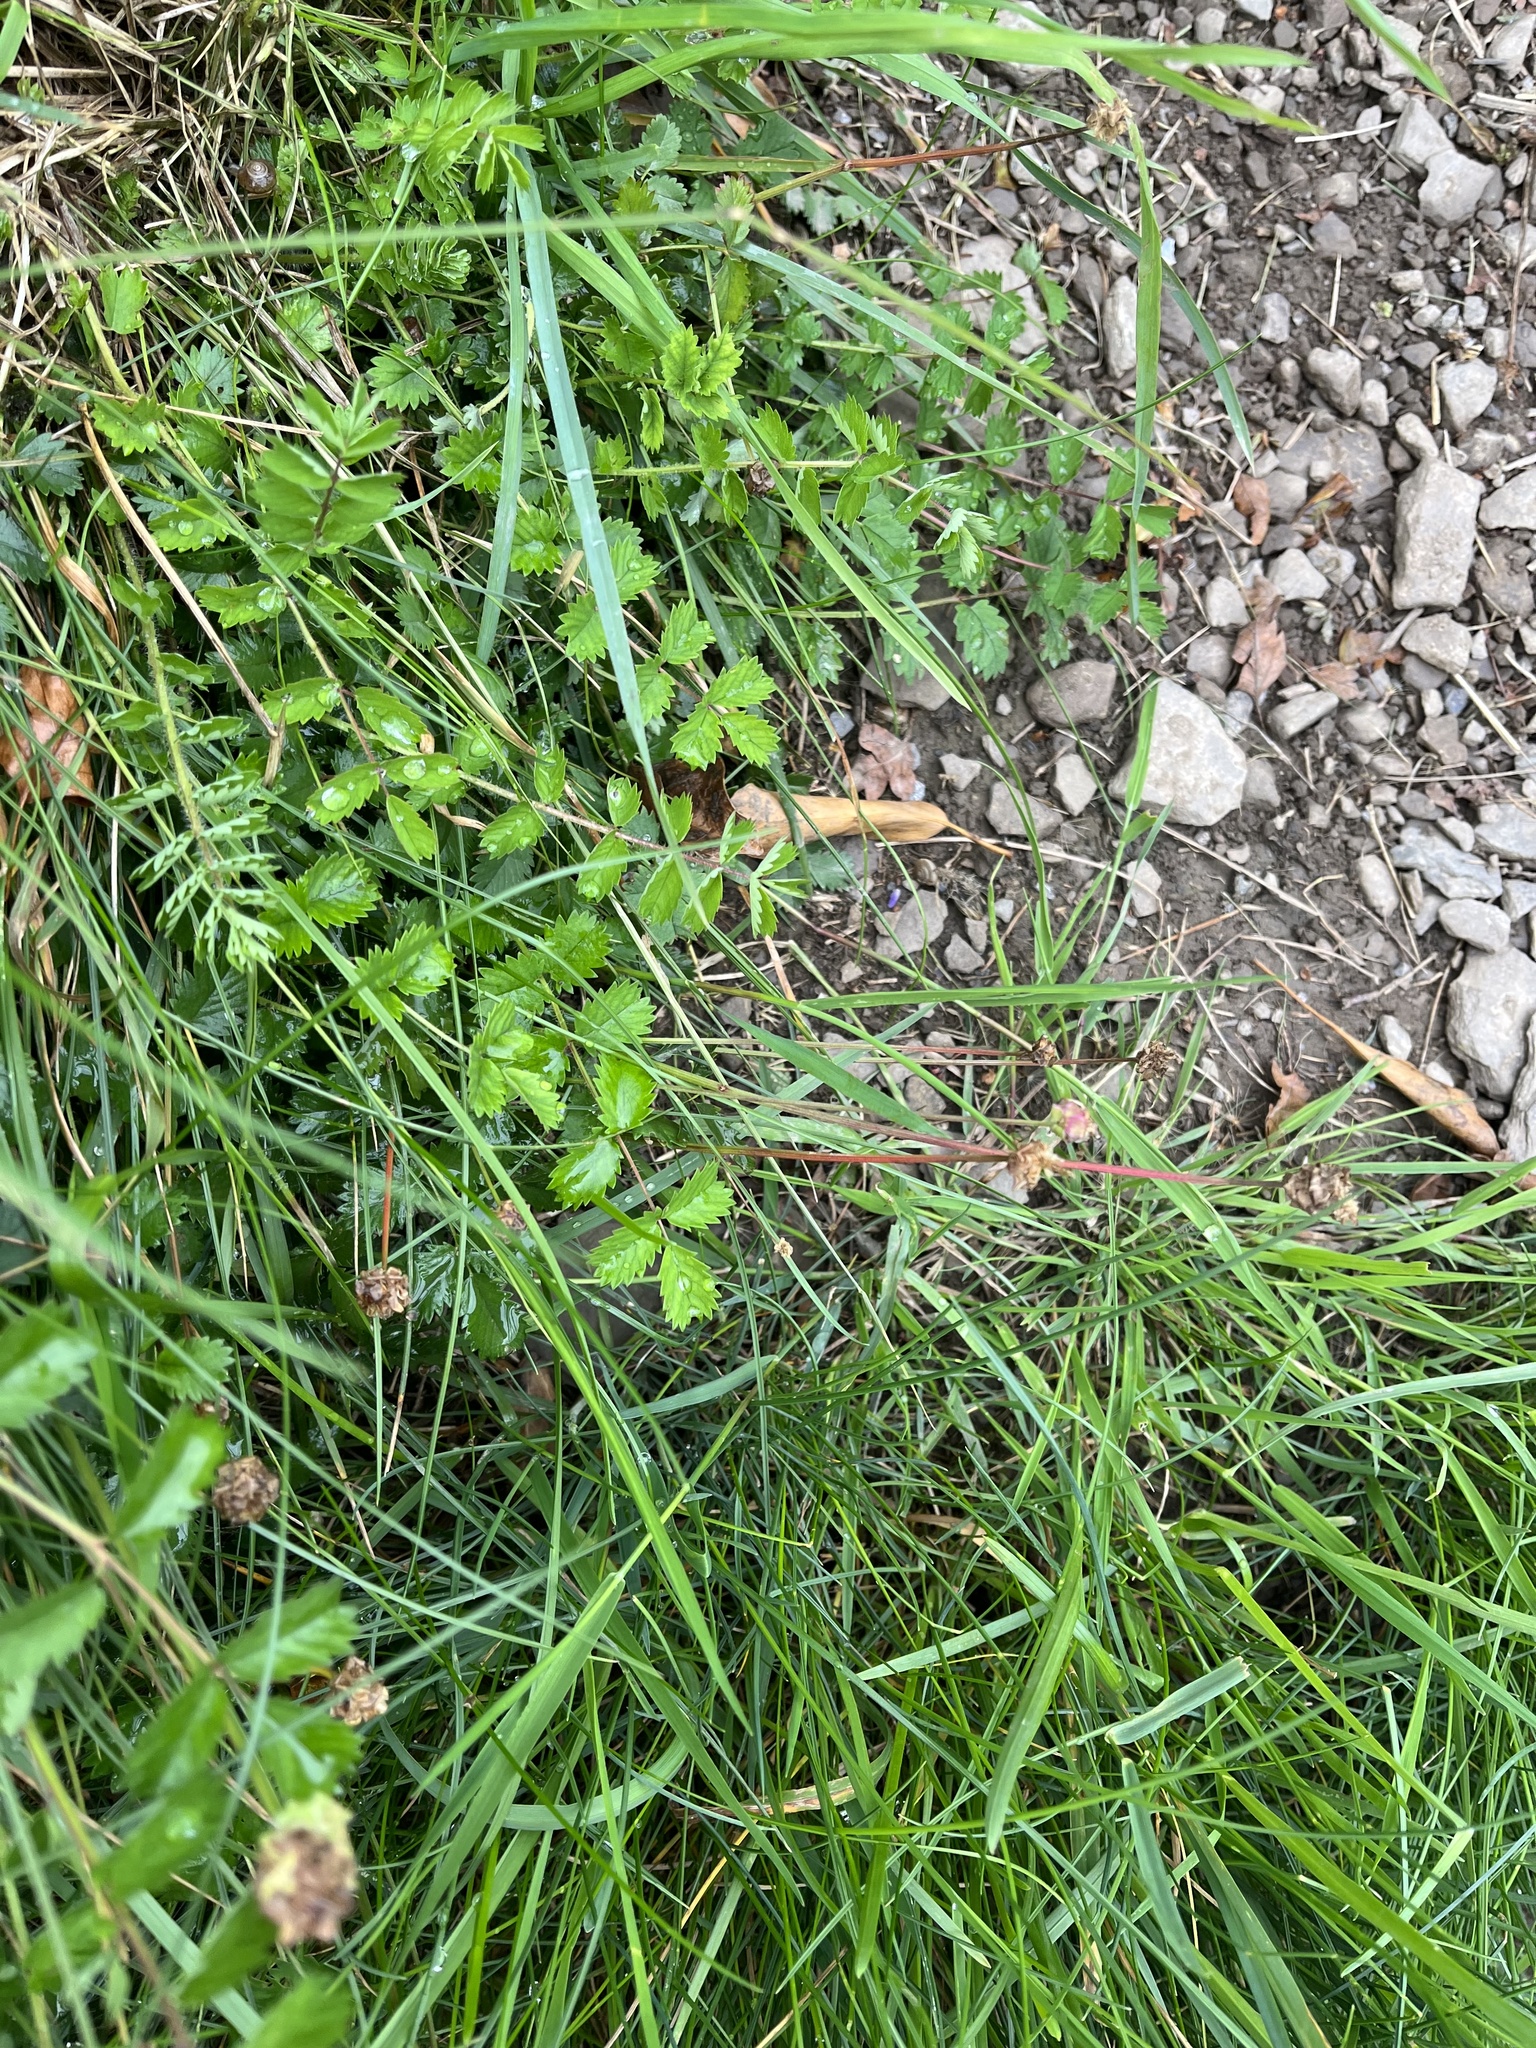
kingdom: Plantae
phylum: Tracheophyta
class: Magnoliopsida
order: Rosales
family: Rosaceae
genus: Poterium
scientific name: Poterium sanguisorba
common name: Salad burnet
